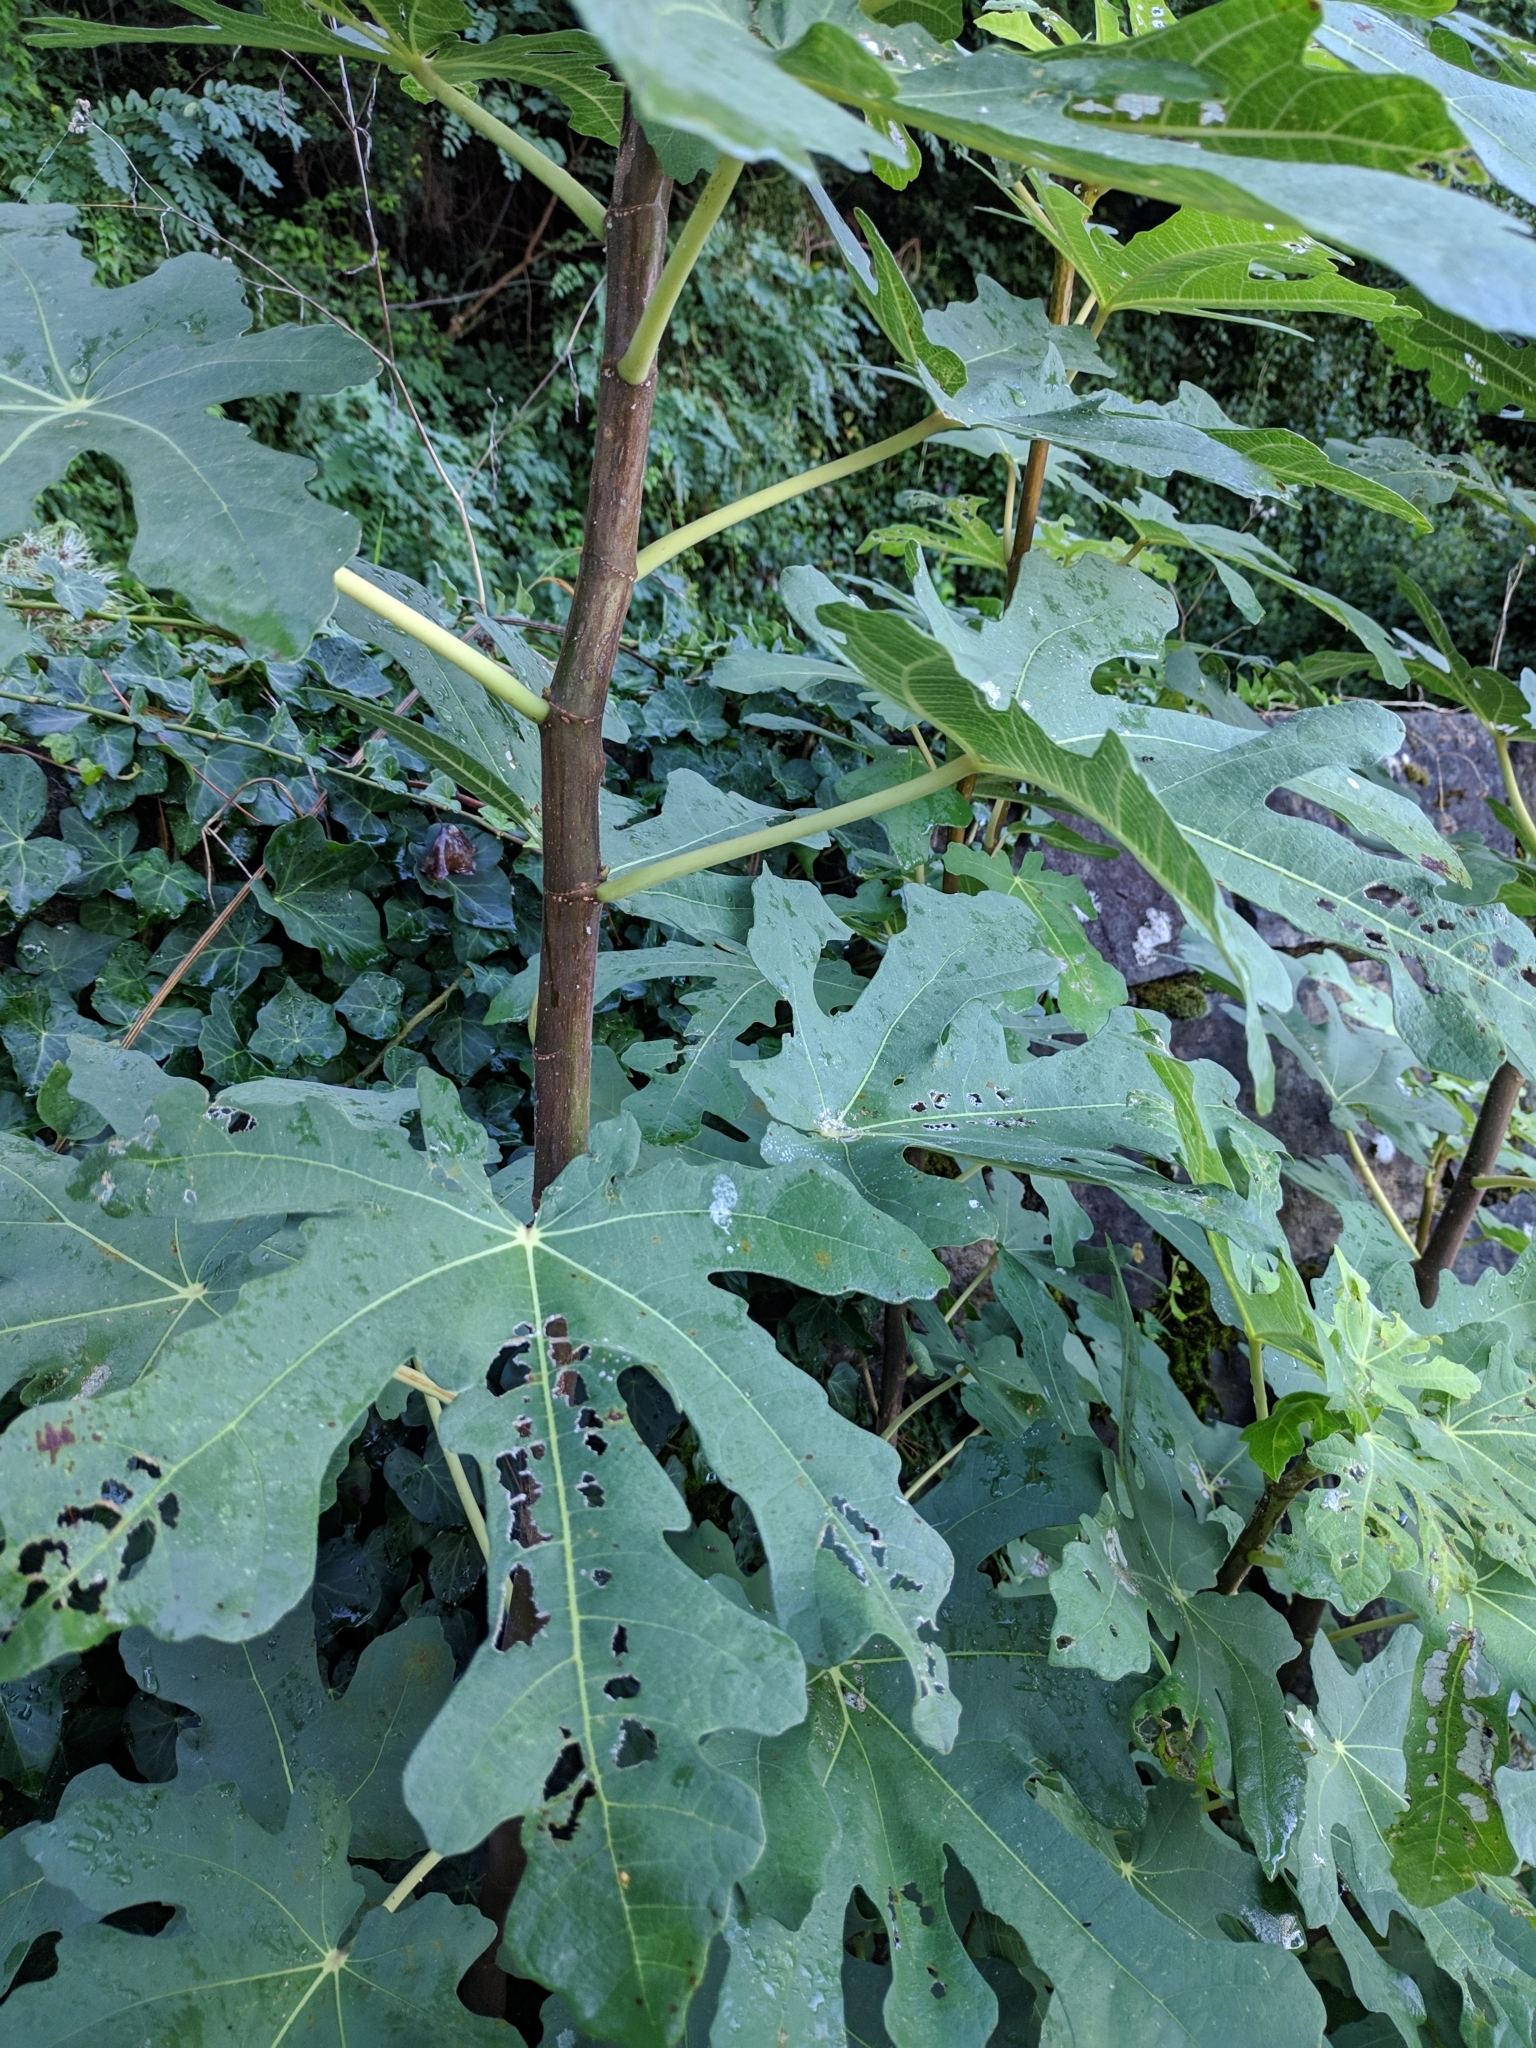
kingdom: Plantae
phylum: Tracheophyta
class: Magnoliopsida
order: Rosales
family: Moraceae
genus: Ficus
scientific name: Ficus carica
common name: Fig
